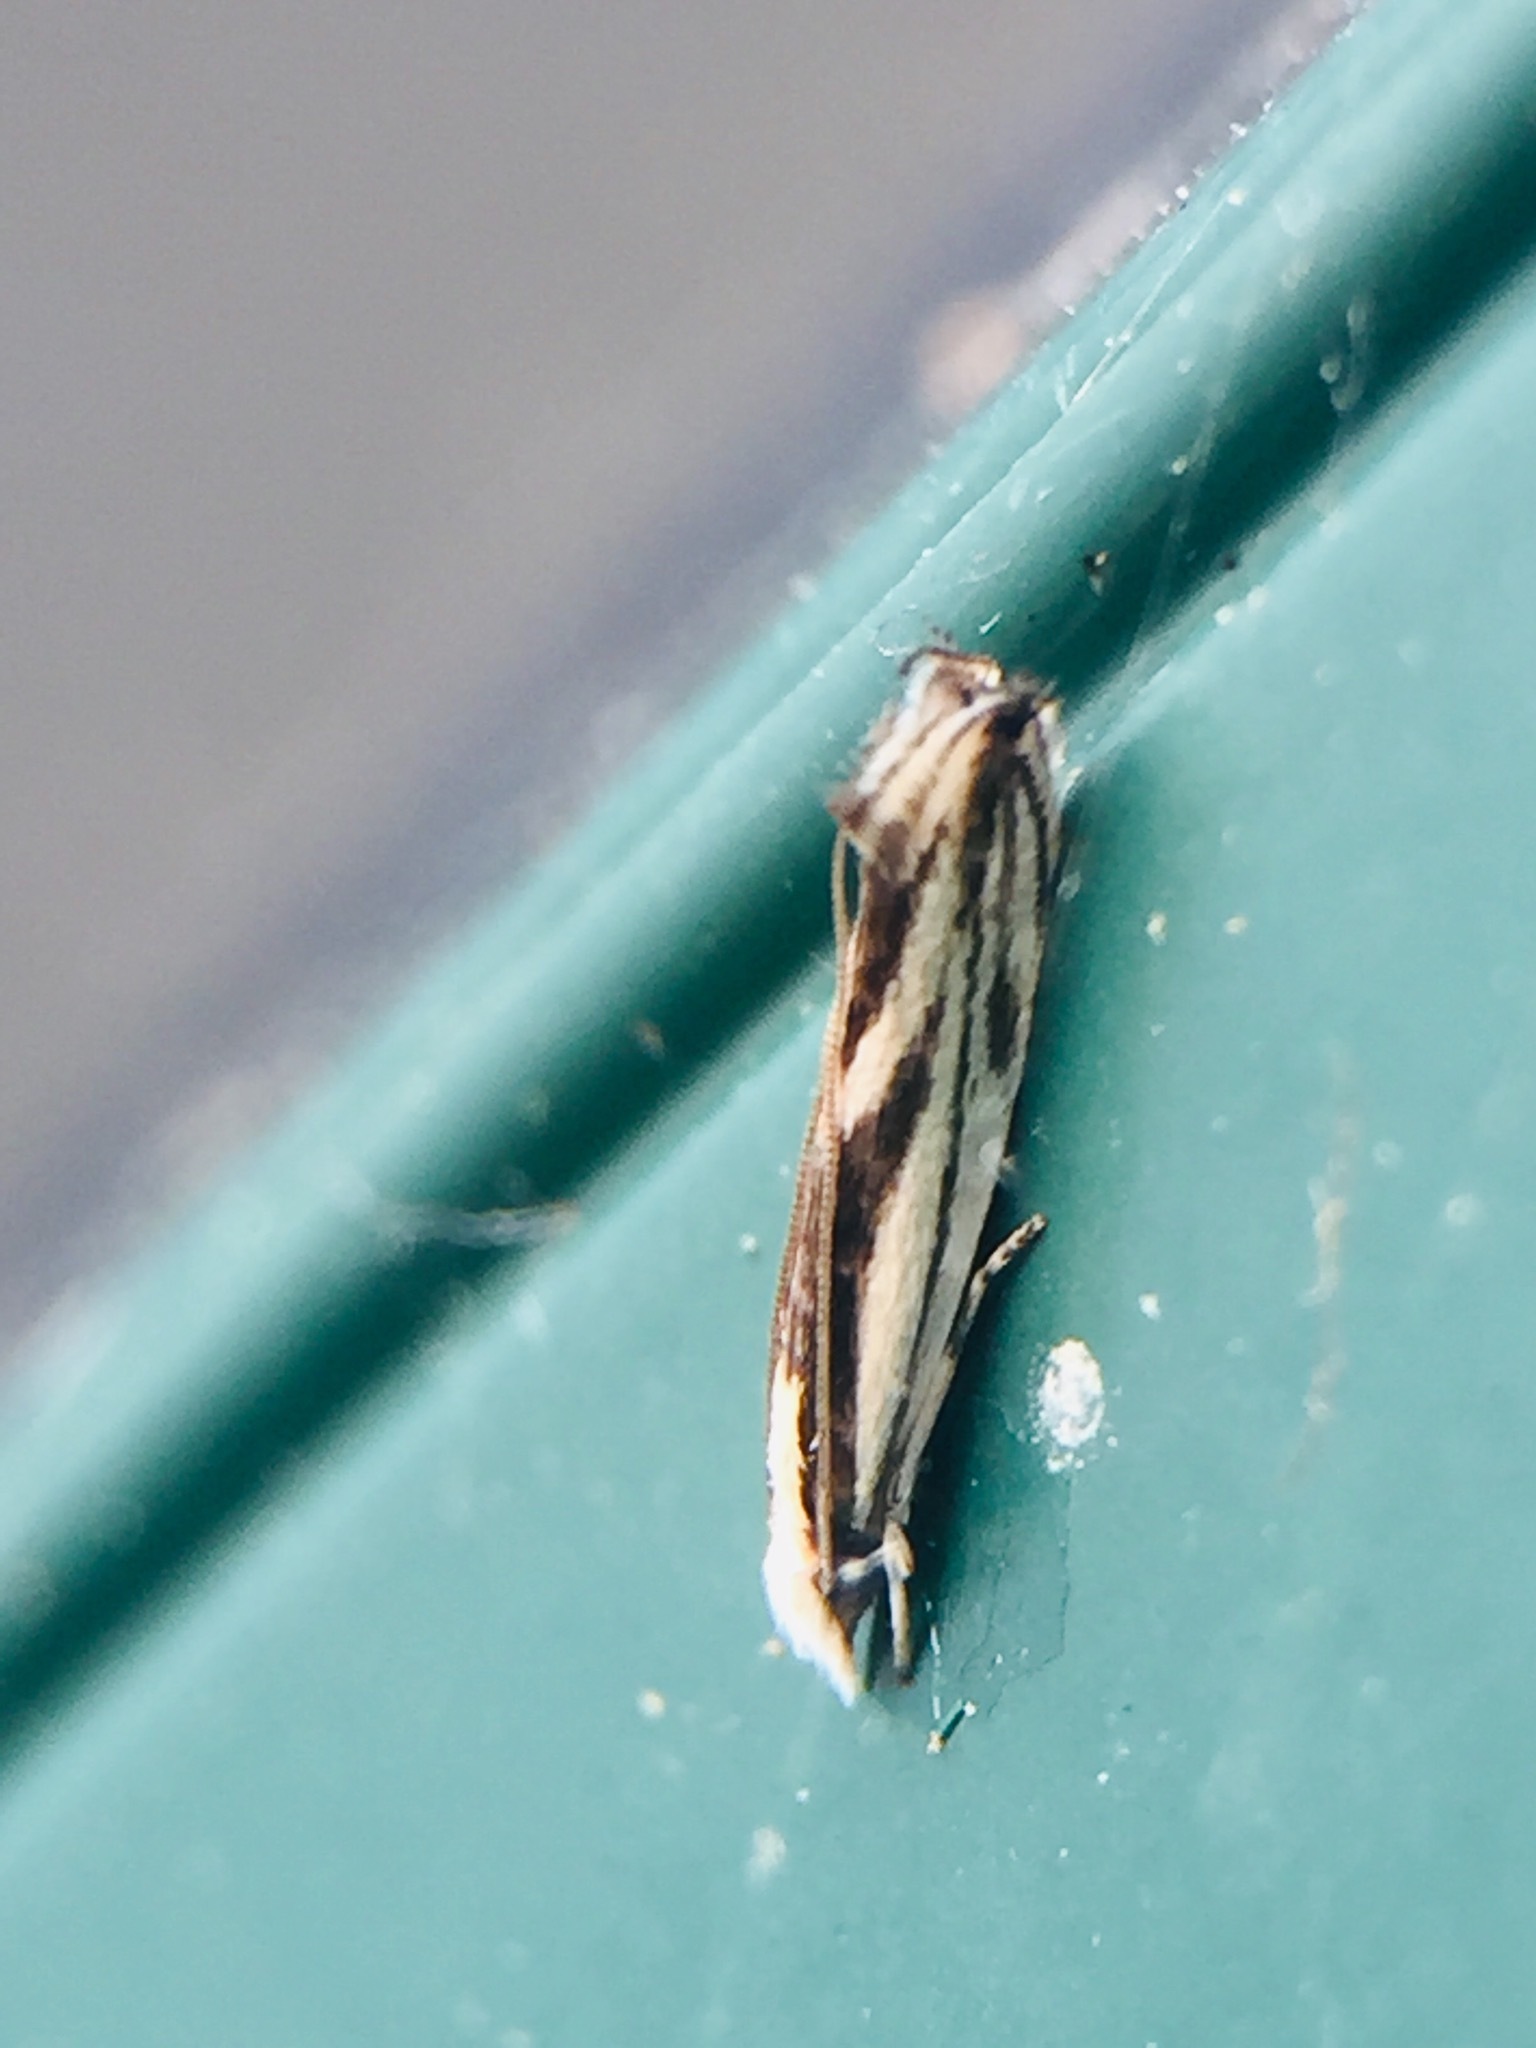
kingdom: Animalia
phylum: Arthropoda
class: Insecta
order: Lepidoptera
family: Tineidae
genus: Erechthias
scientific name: Erechthias chasmatias
